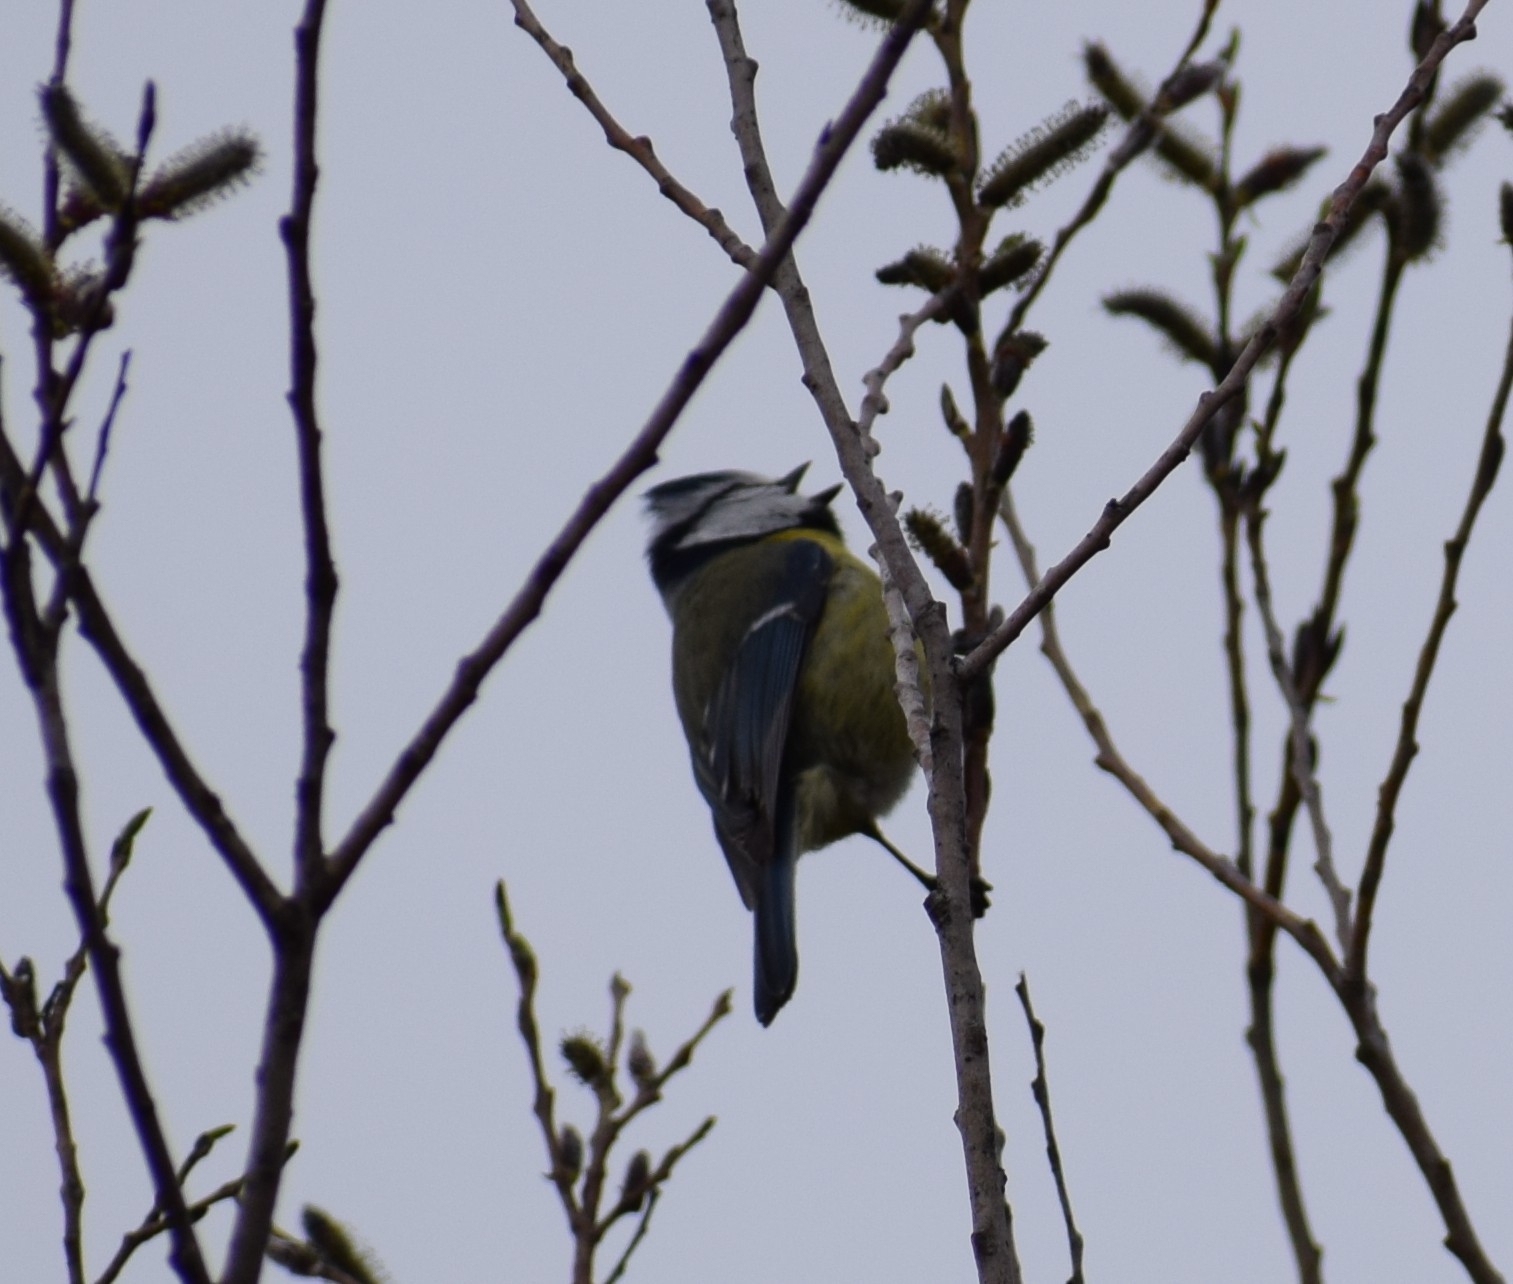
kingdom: Animalia
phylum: Chordata
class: Aves
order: Passeriformes
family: Paridae
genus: Cyanistes
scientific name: Cyanistes caeruleus
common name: Eurasian blue tit
